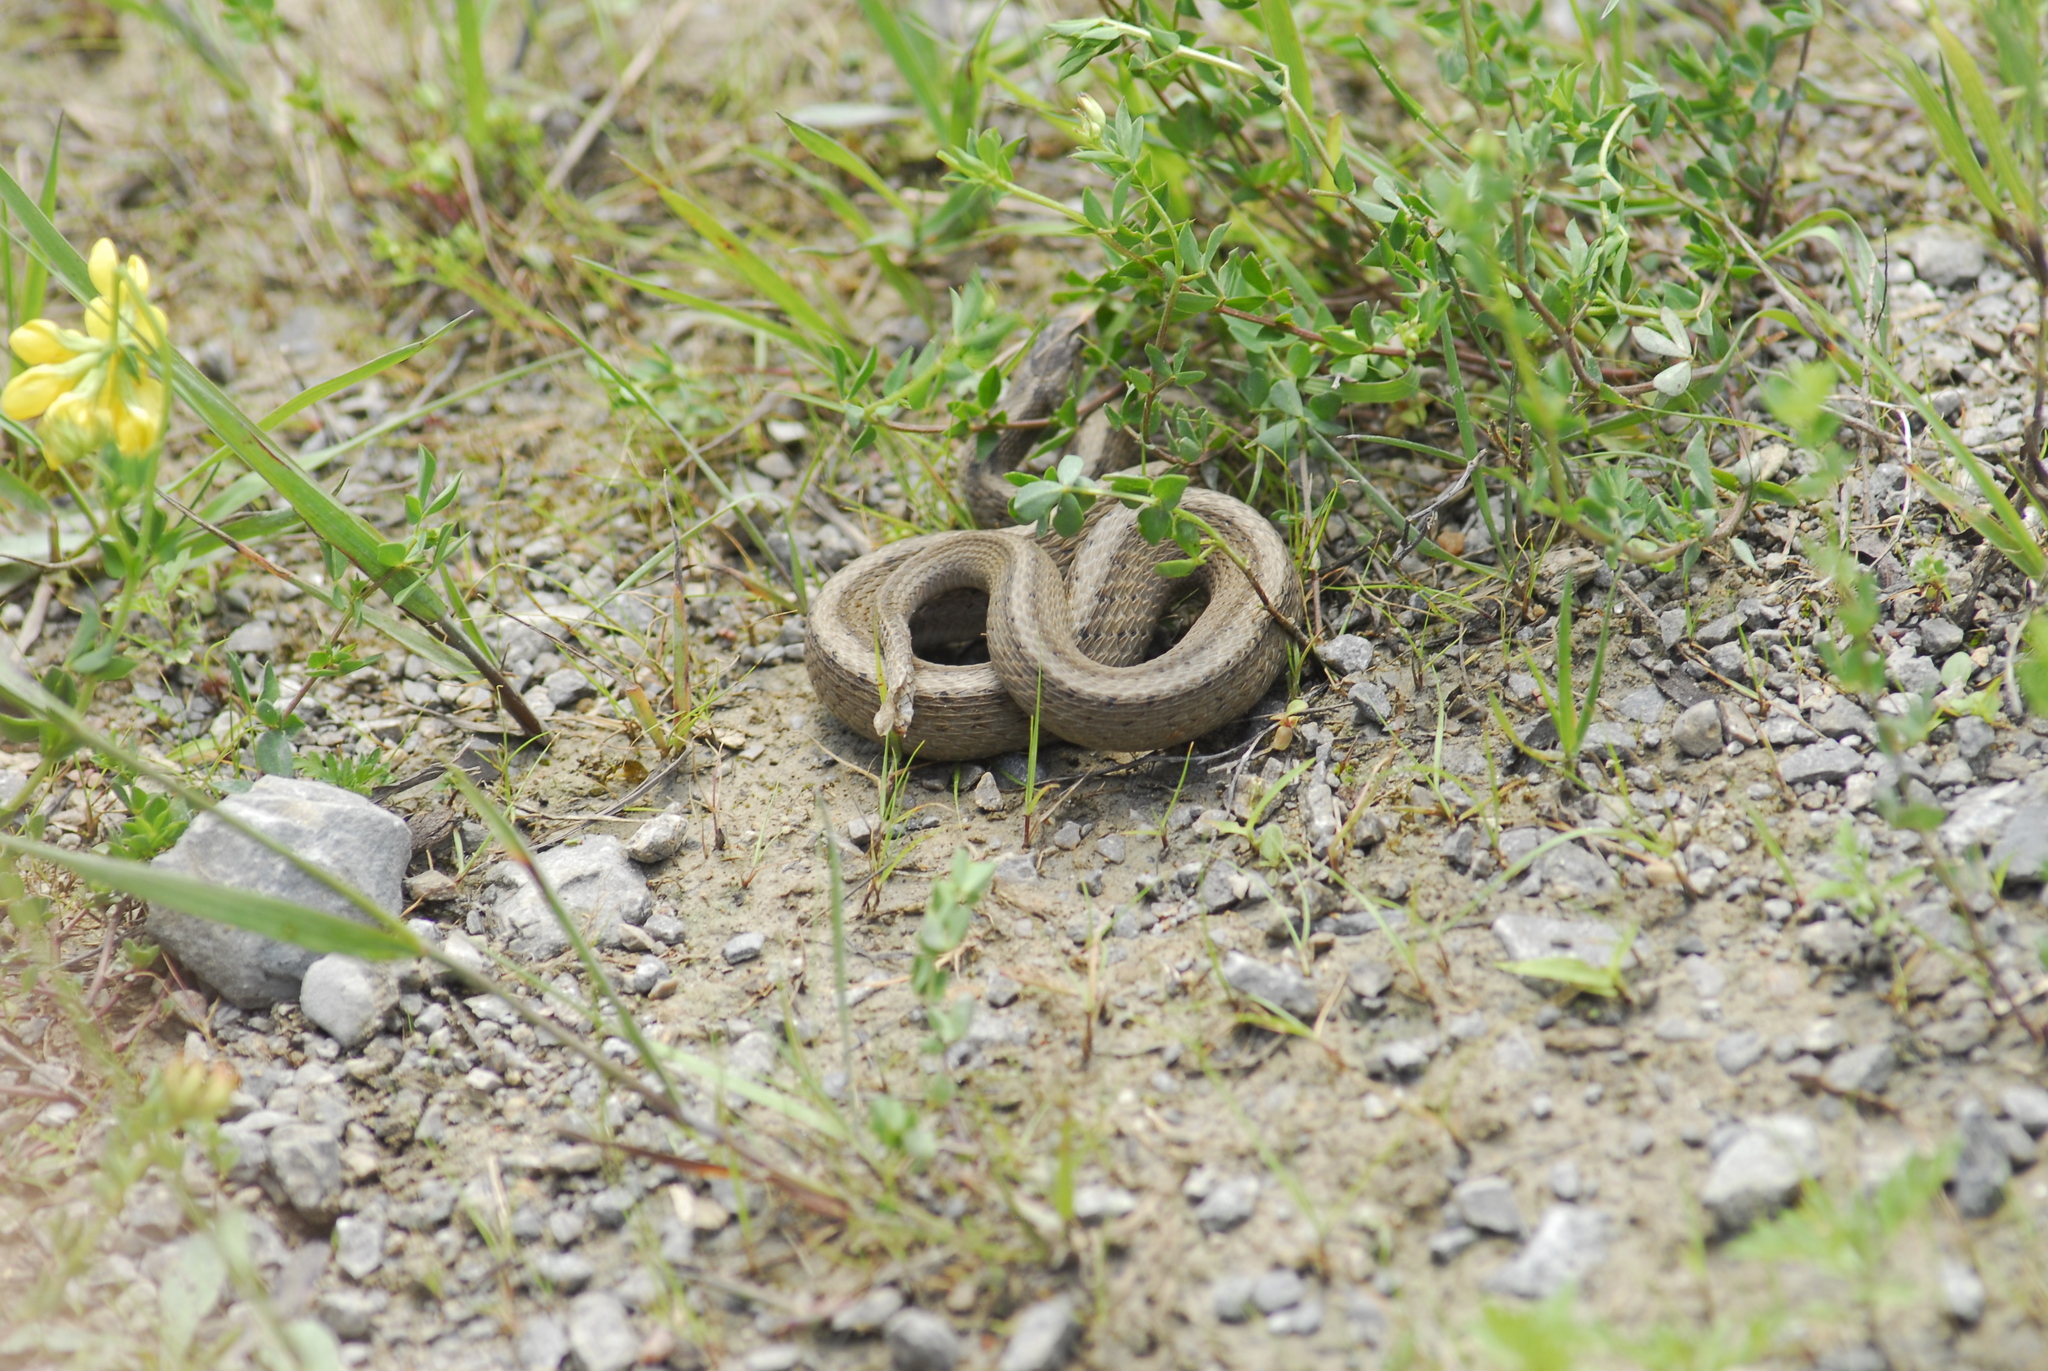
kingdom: Animalia
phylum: Chordata
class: Squamata
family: Colubridae
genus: Storeria
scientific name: Storeria dekayi
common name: (dekay’s) brown snake
